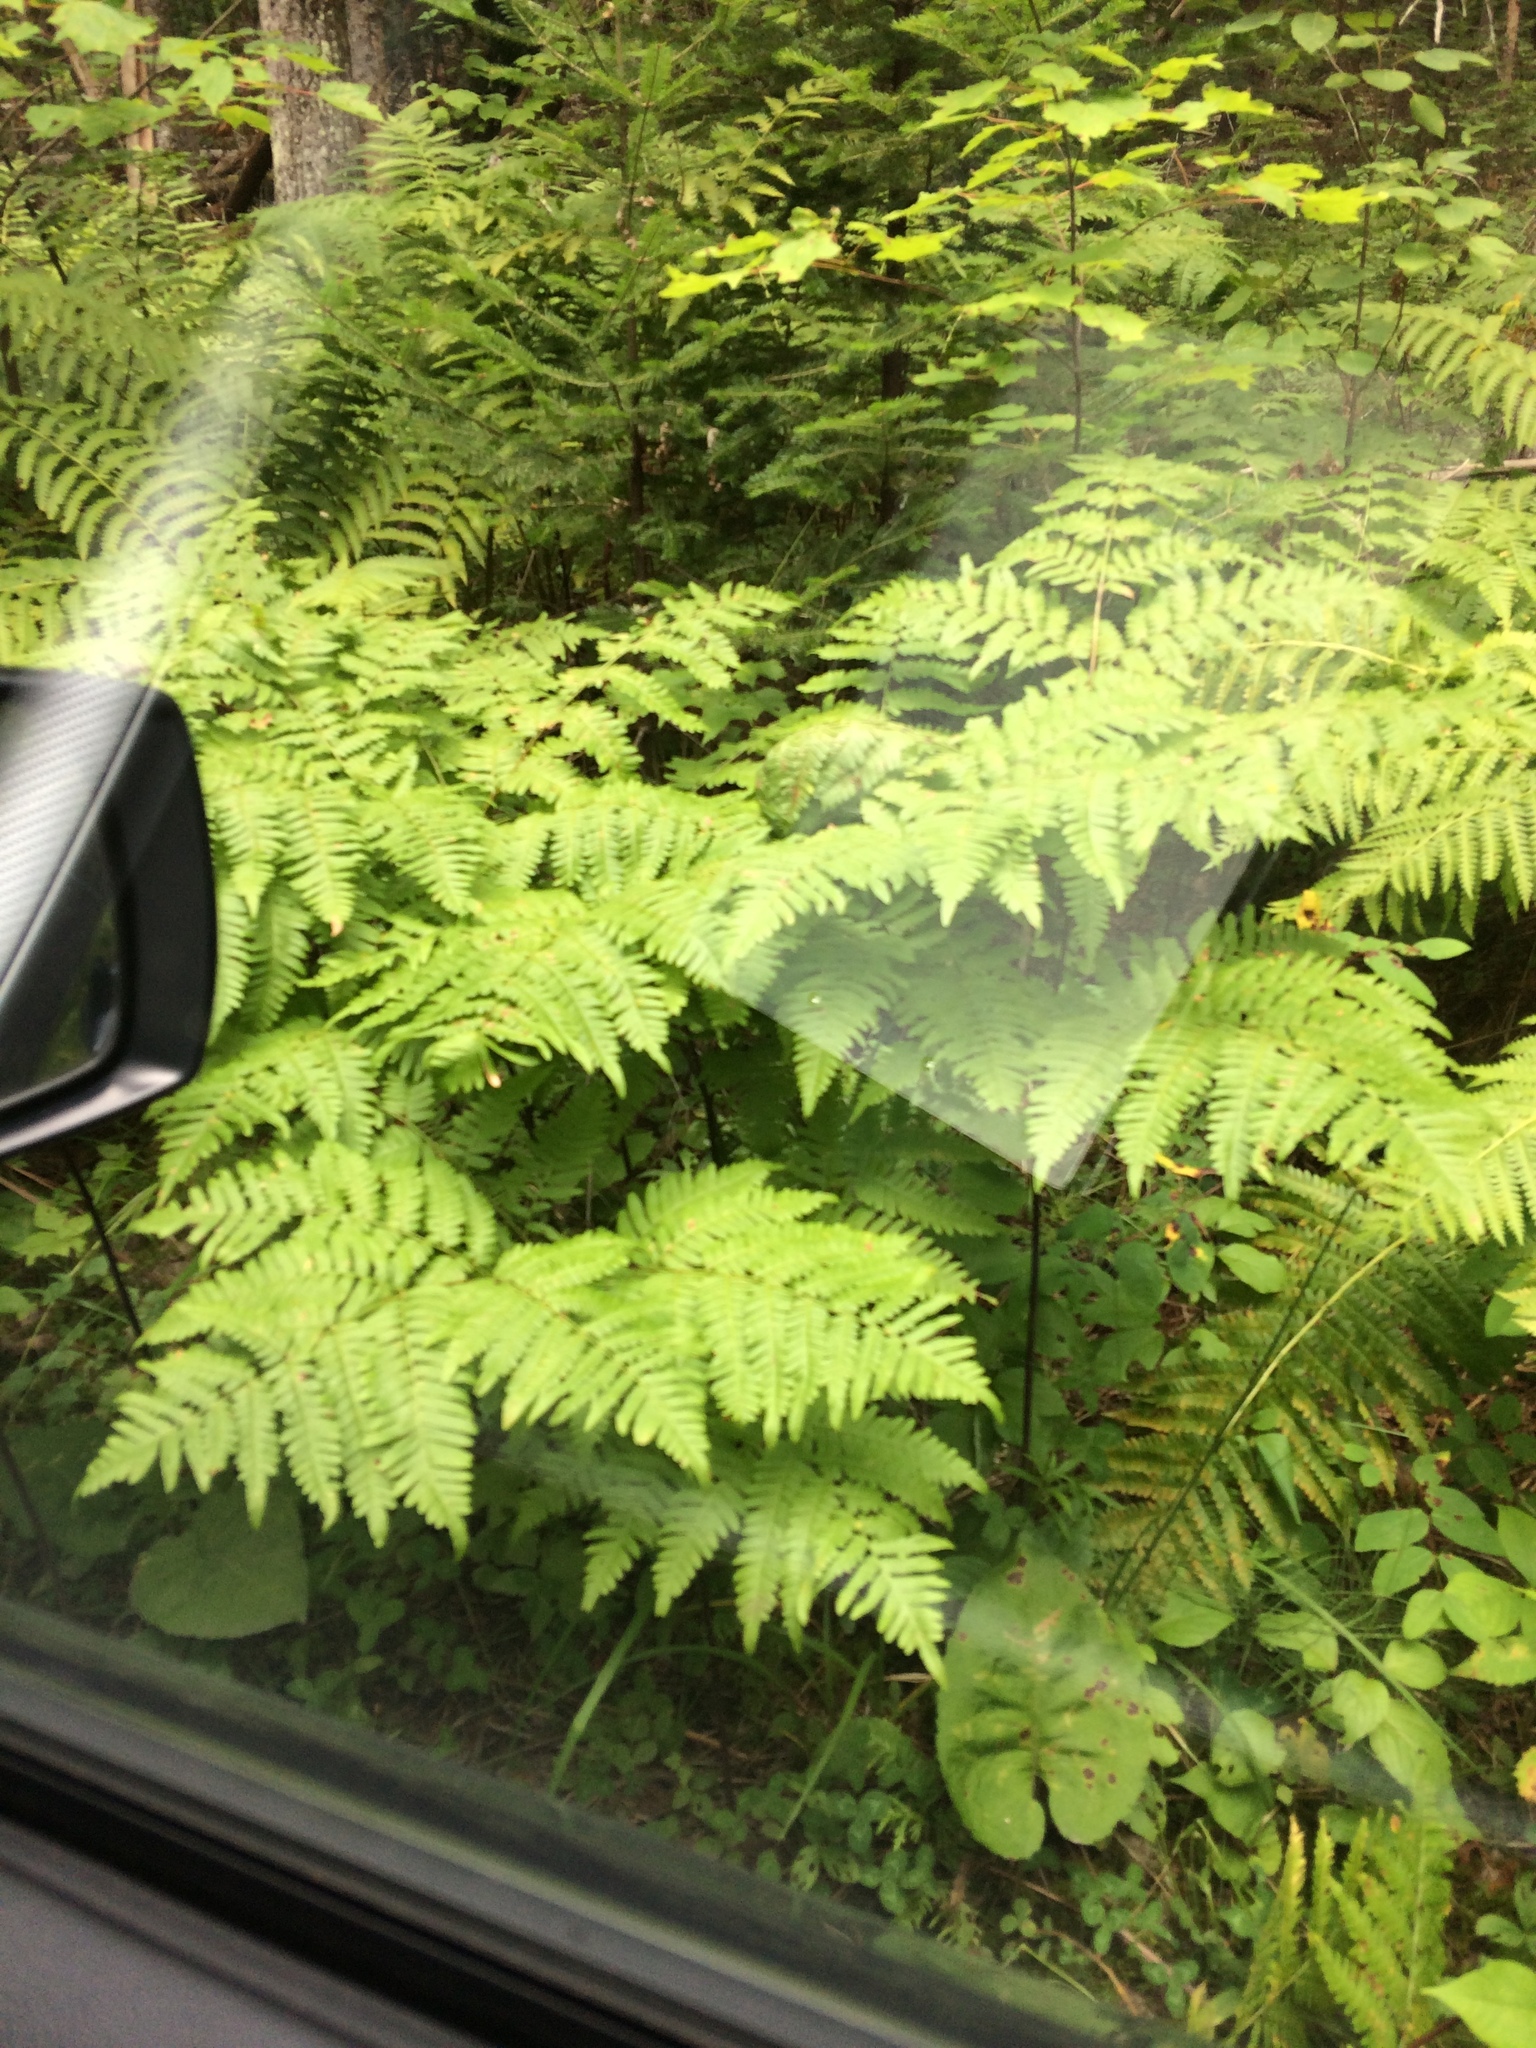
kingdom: Plantae
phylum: Tracheophyta
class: Polypodiopsida
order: Polypodiales
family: Dennstaedtiaceae
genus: Pteridium
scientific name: Pteridium aquilinum
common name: Bracken
